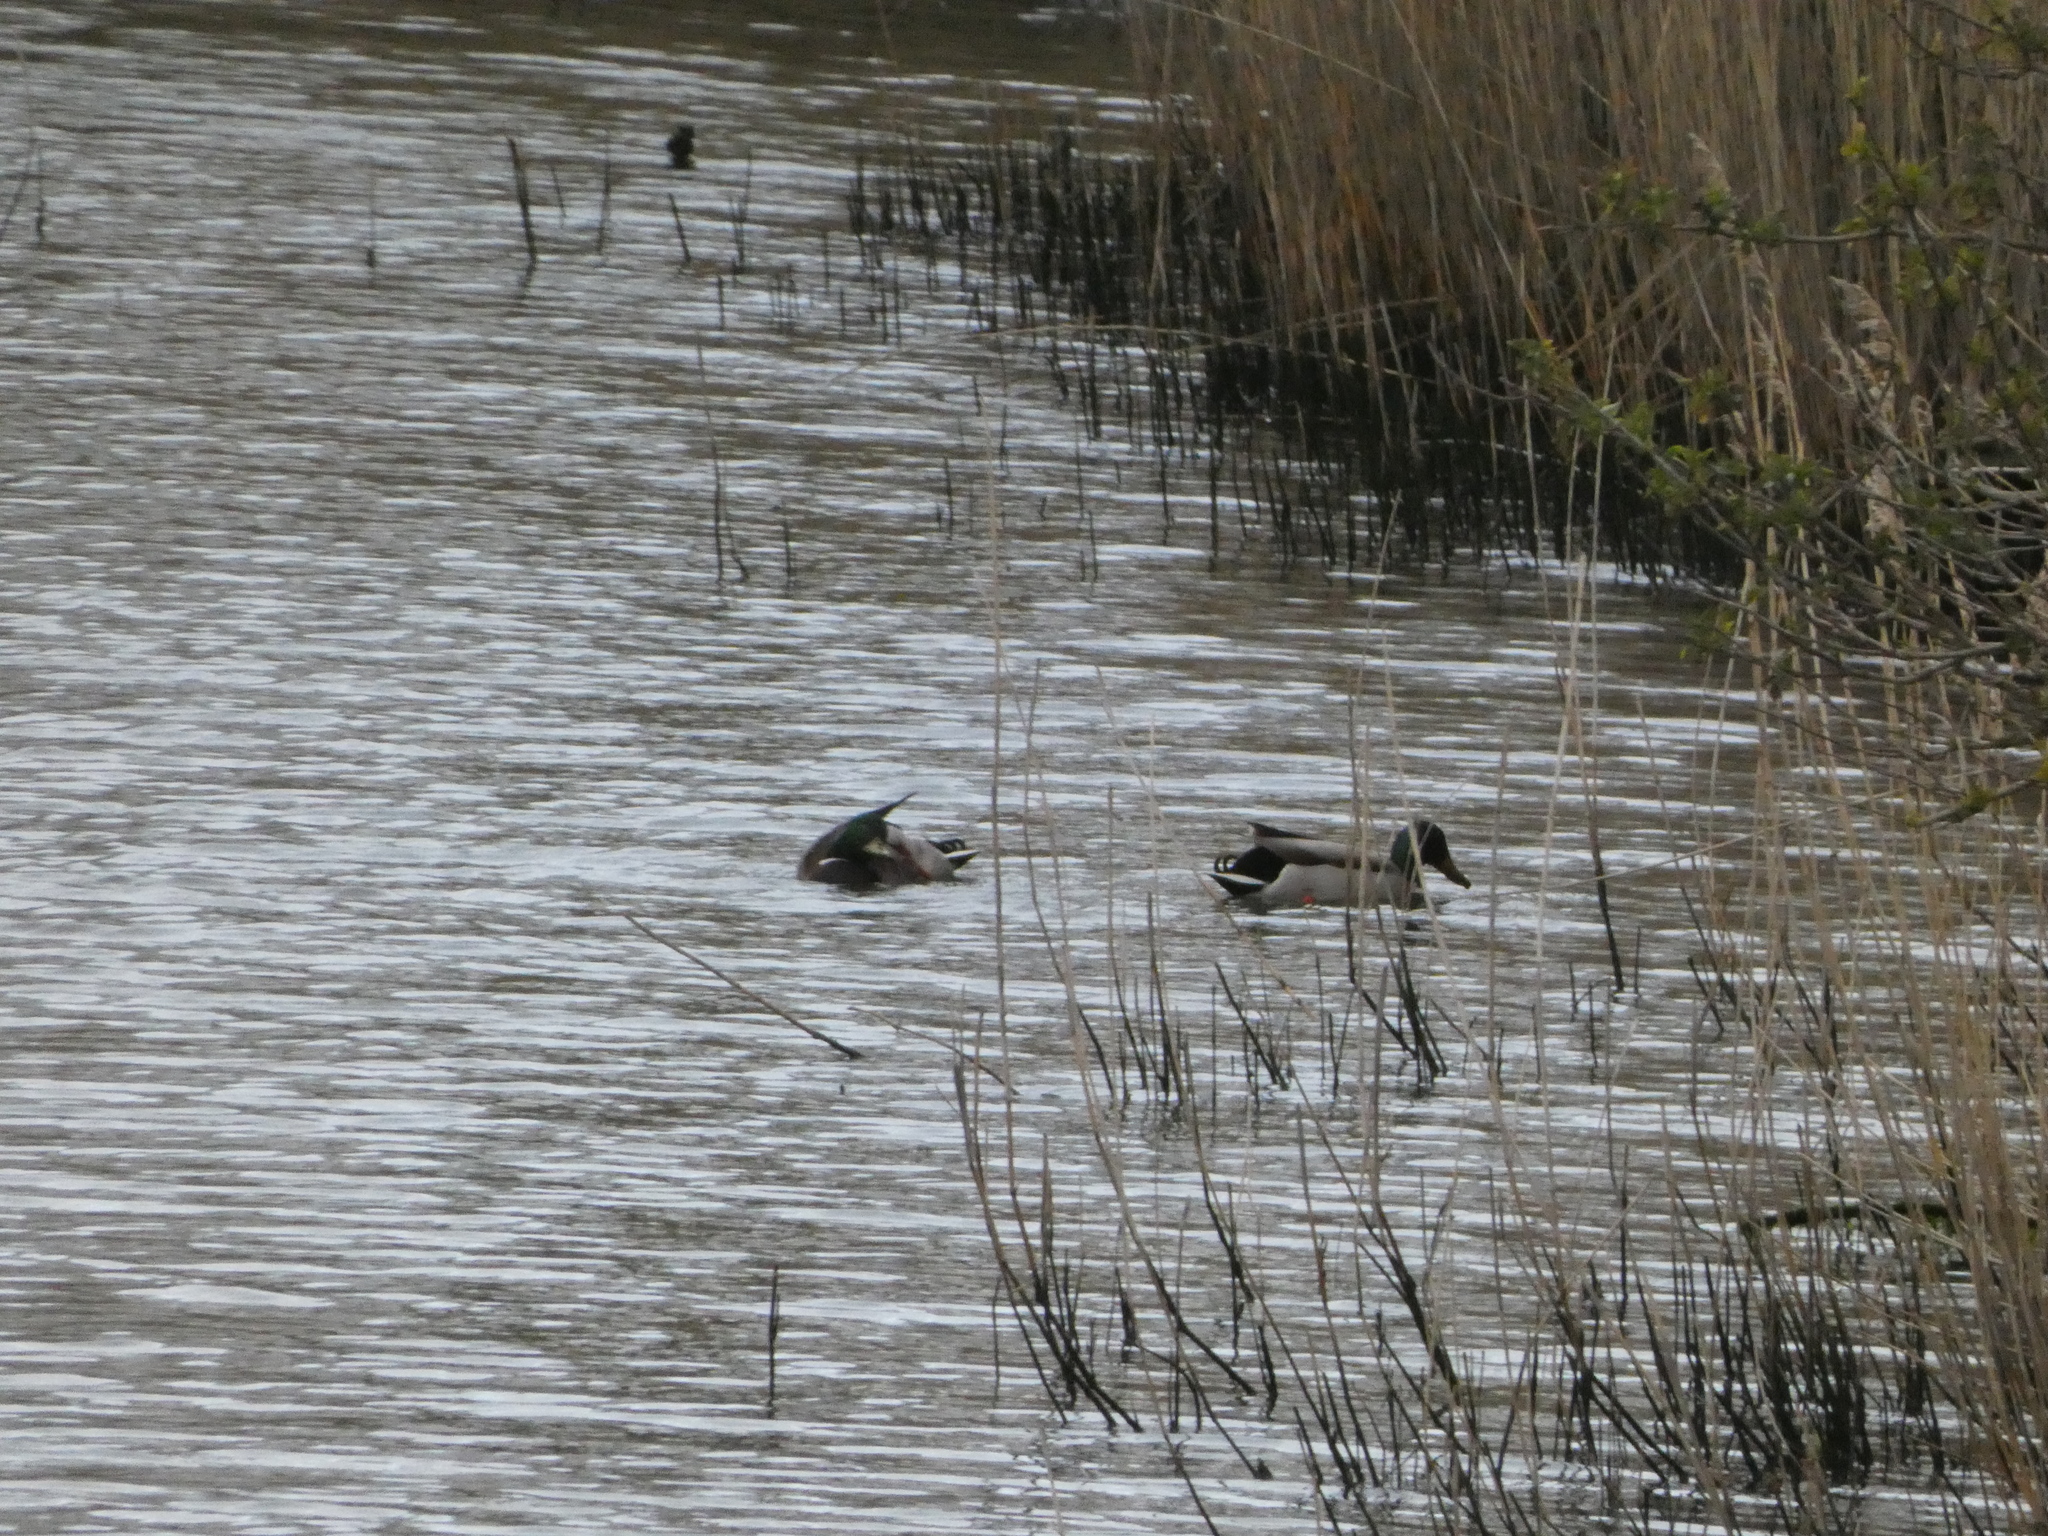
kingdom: Animalia
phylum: Chordata
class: Aves
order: Anseriformes
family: Anatidae
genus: Anas
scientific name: Anas platyrhynchos
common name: Mallard
